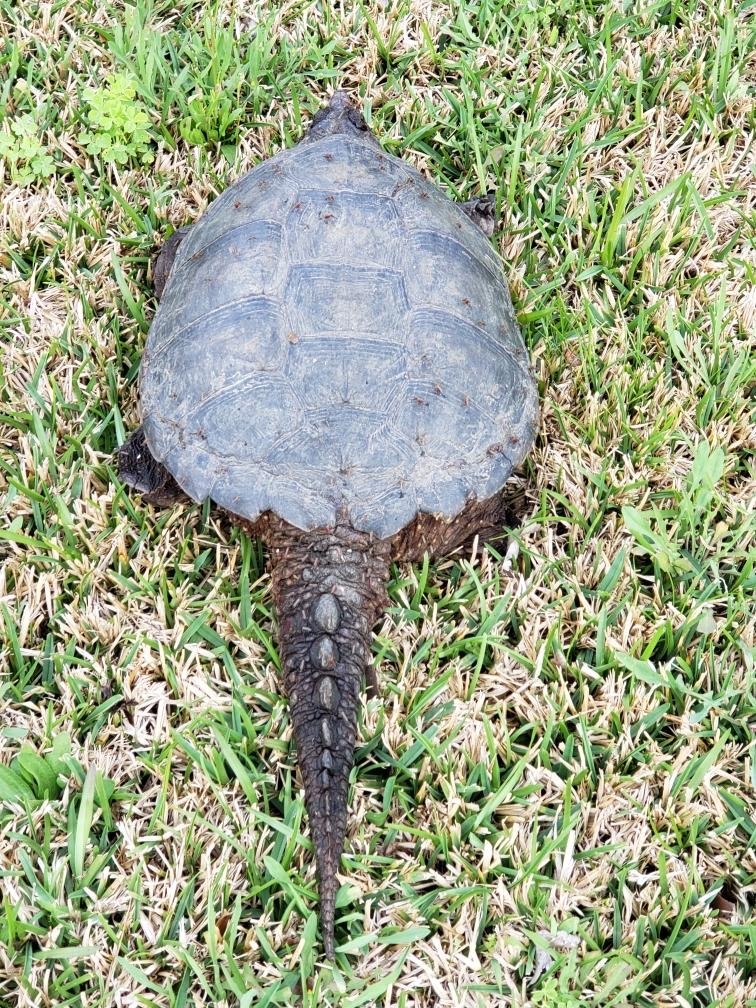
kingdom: Animalia
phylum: Chordata
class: Testudines
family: Chelydridae
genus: Chelydra
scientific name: Chelydra serpentina
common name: Common snapping turtle
